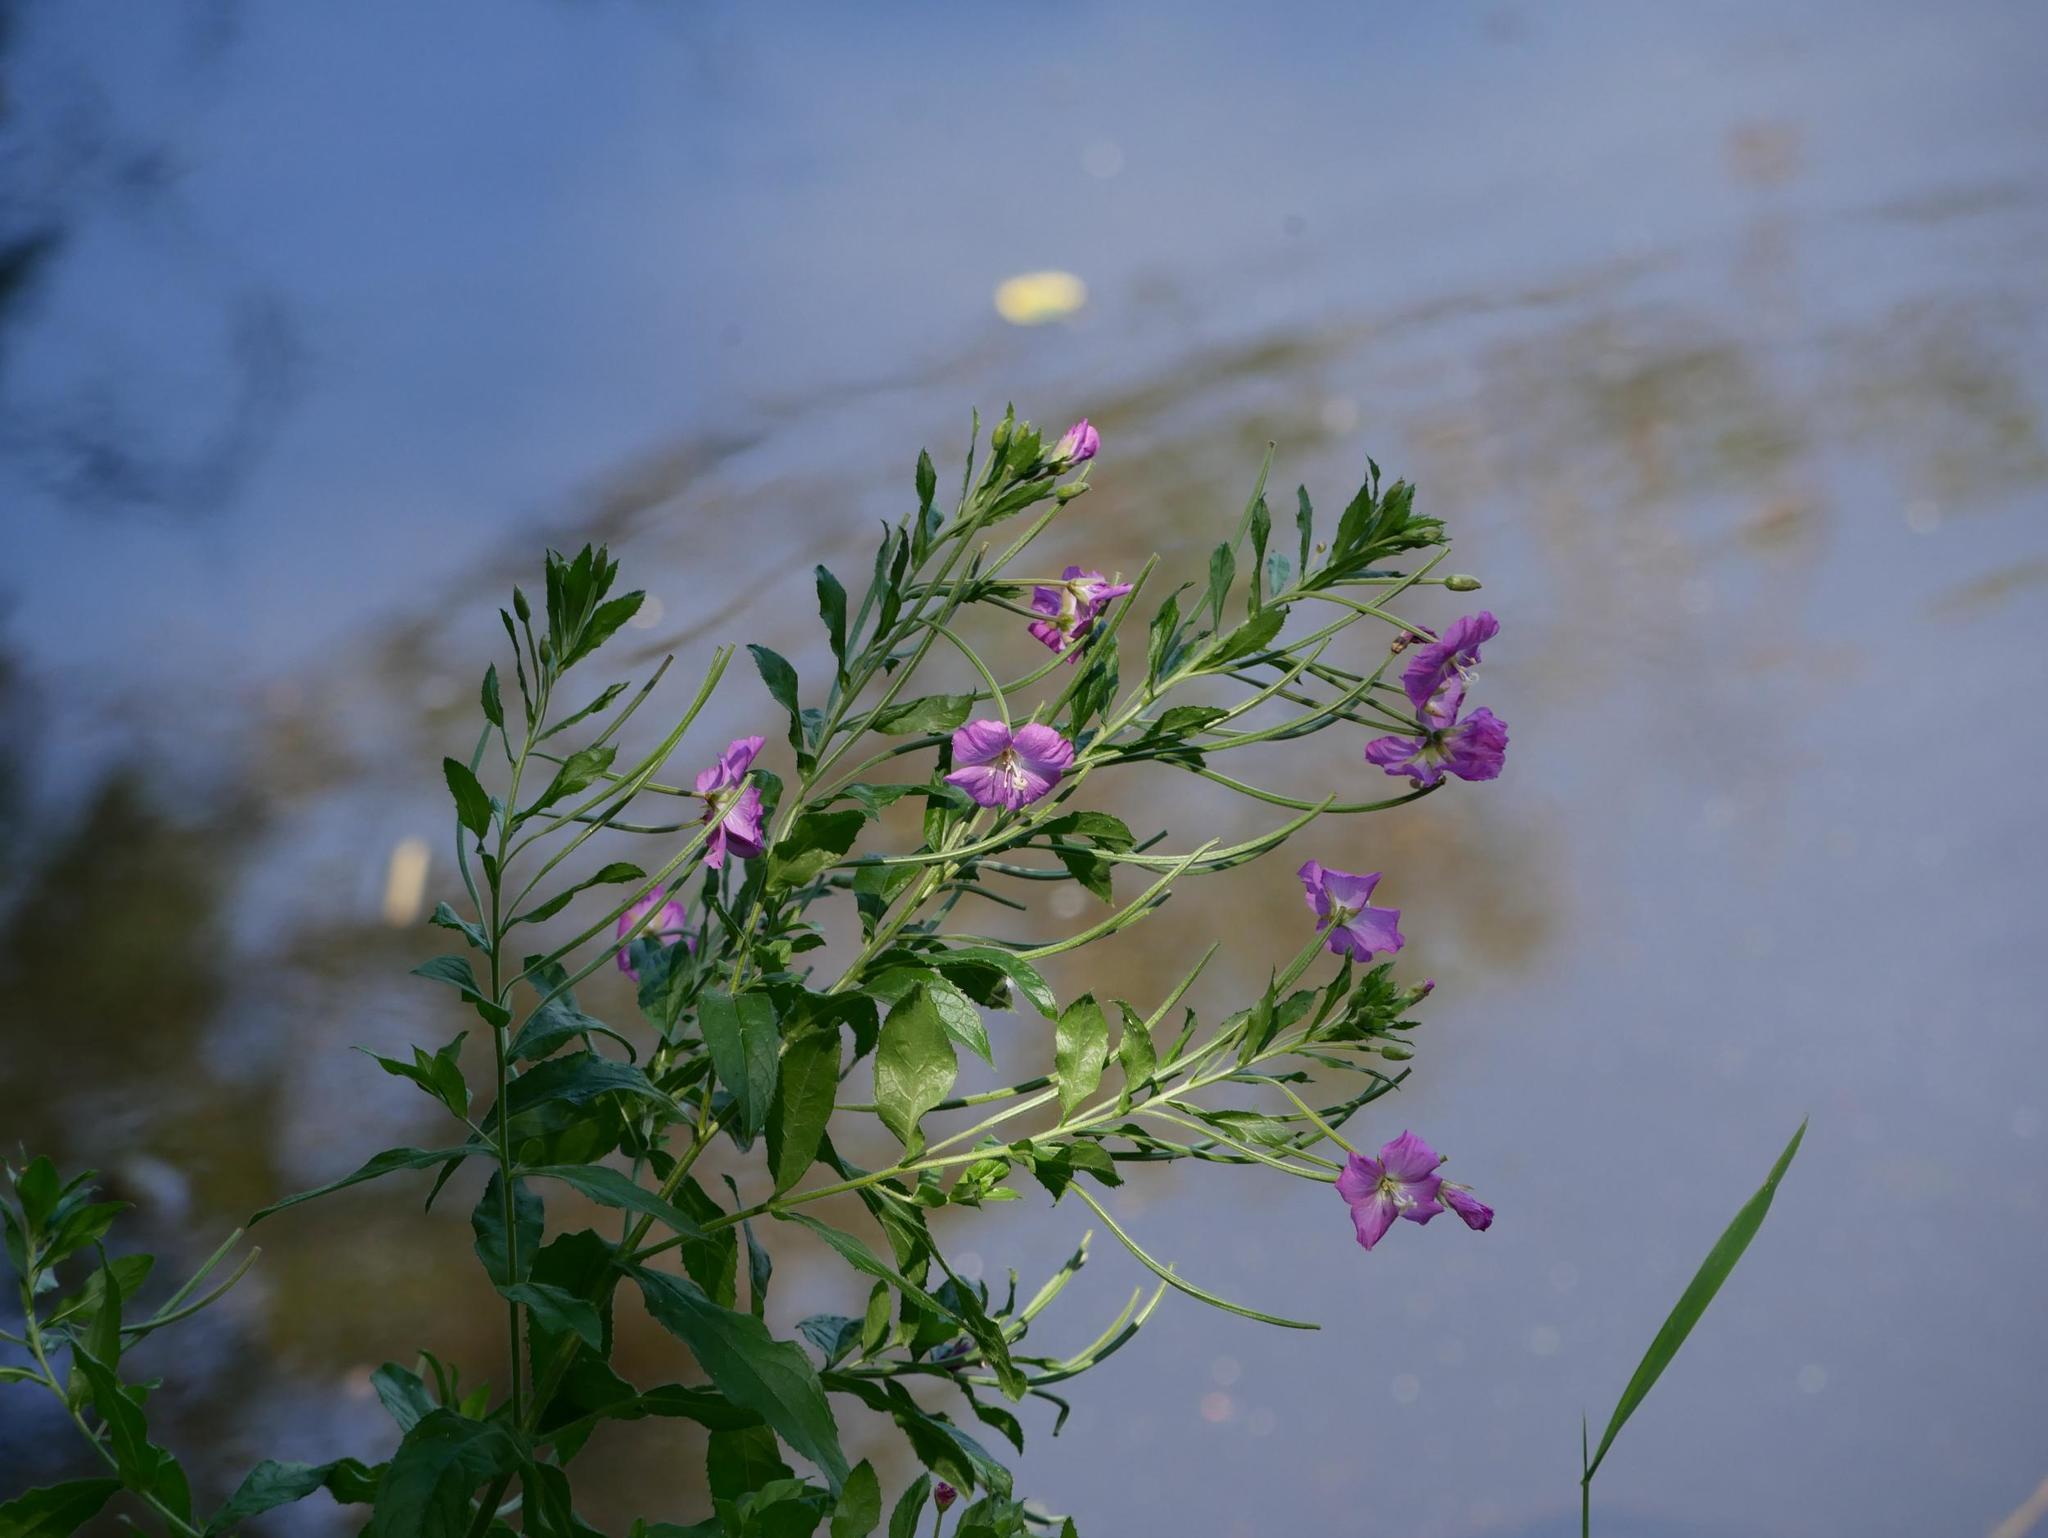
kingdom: Plantae
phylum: Tracheophyta
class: Magnoliopsida
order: Myrtales
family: Onagraceae
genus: Epilobium
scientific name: Epilobium hirsutum
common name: Great willowherb
